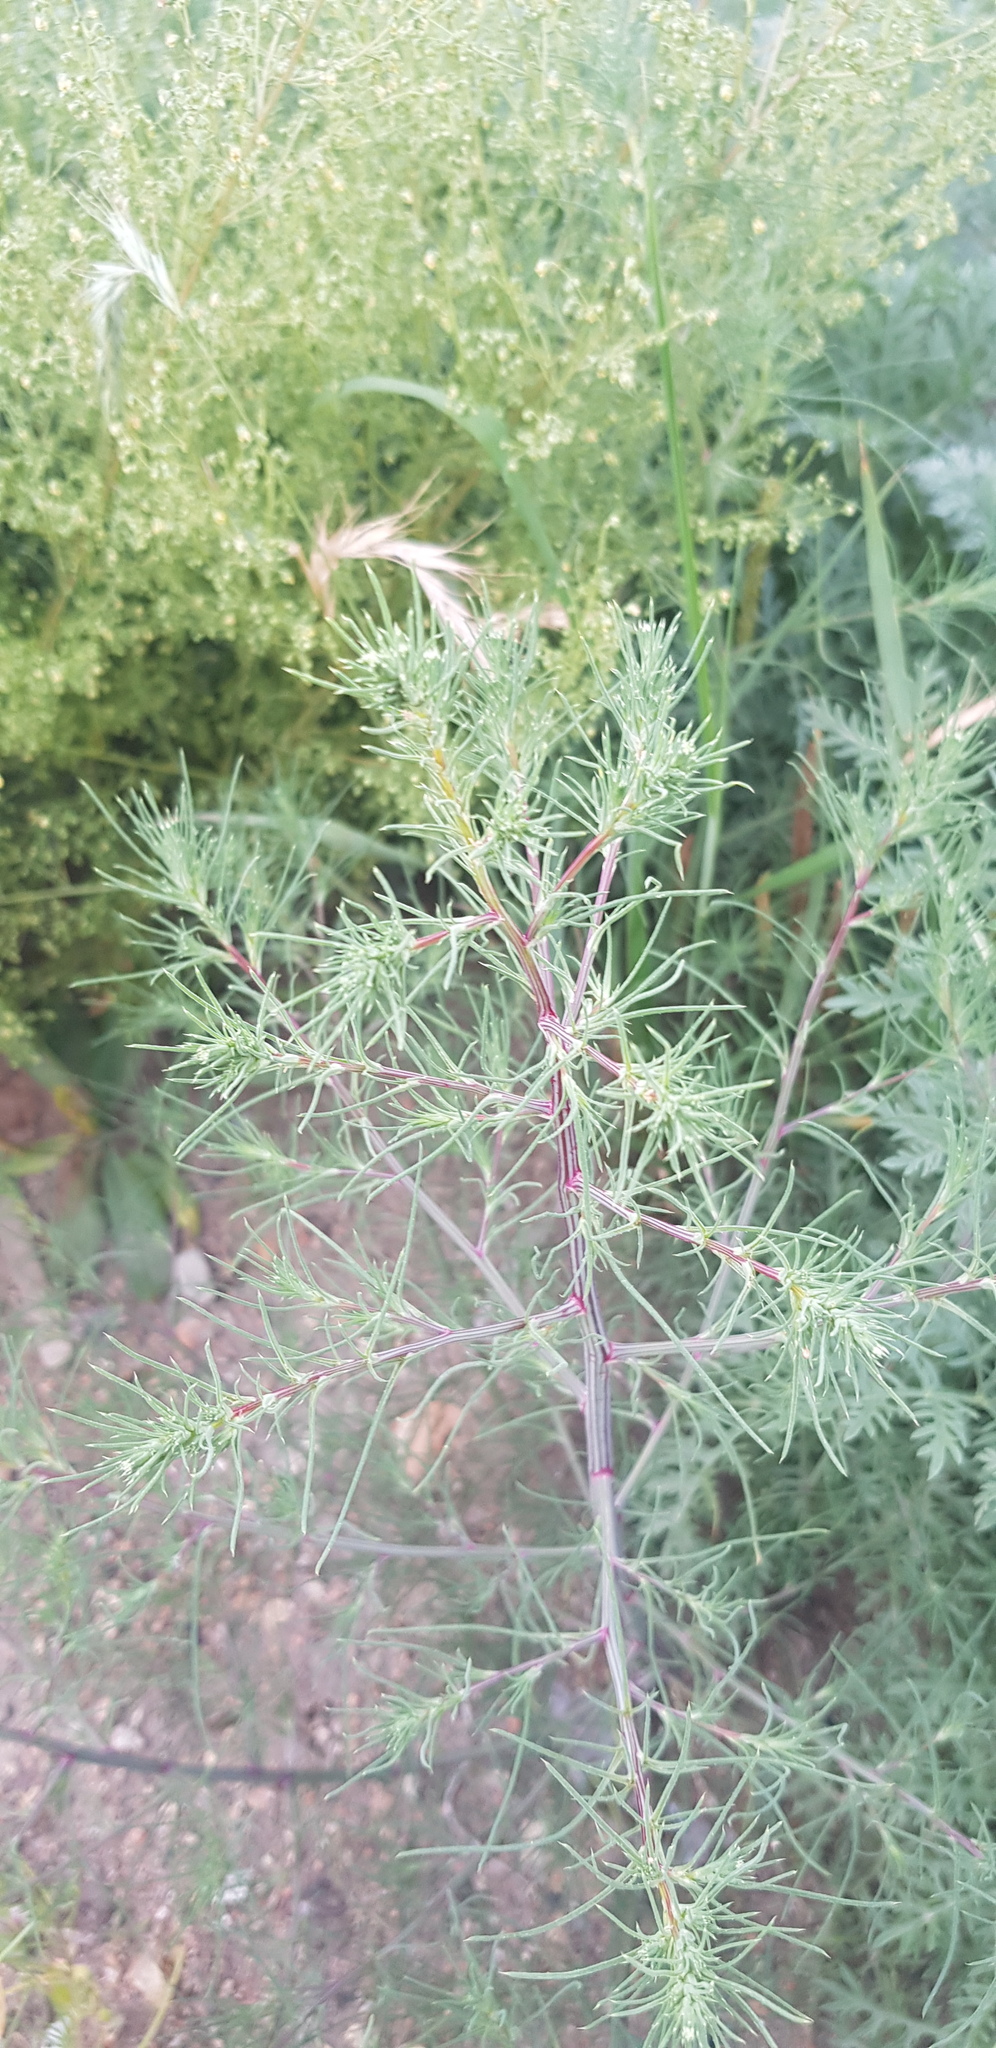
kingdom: Plantae
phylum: Tracheophyta
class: Magnoliopsida
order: Caryophyllales
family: Amaranthaceae
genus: Salsola
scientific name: Salsola collina
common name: Tumbleweed
